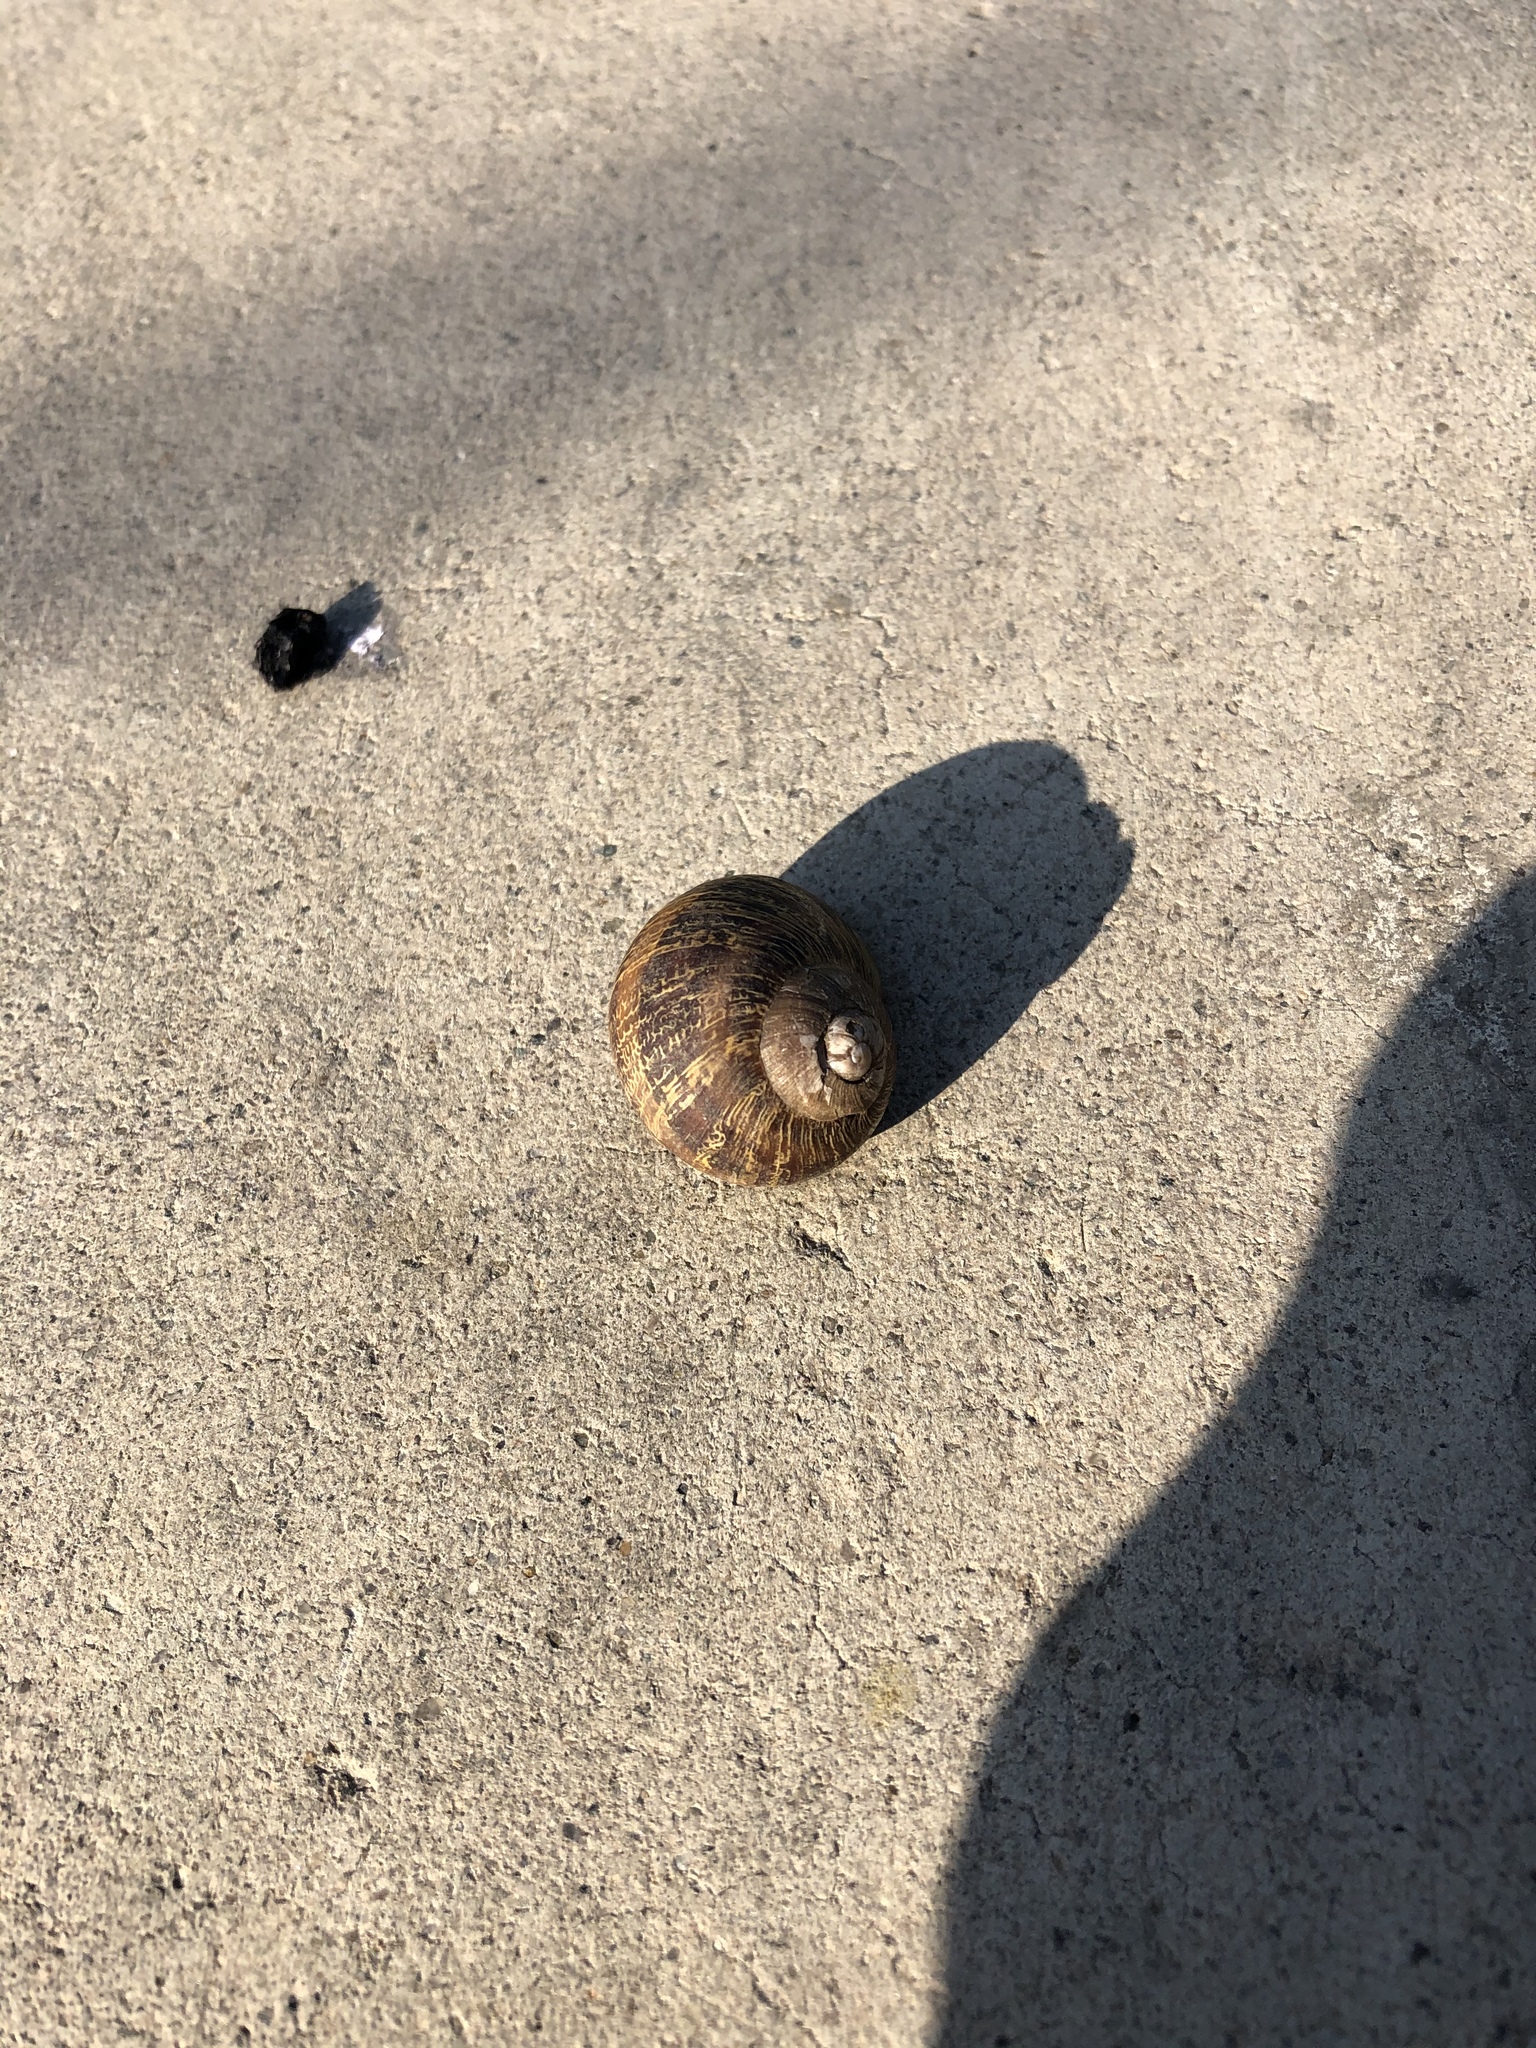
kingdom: Animalia
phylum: Mollusca
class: Gastropoda
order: Stylommatophora
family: Helicidae
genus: Cornu
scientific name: Cornu aspersum
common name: Brown garden snail
